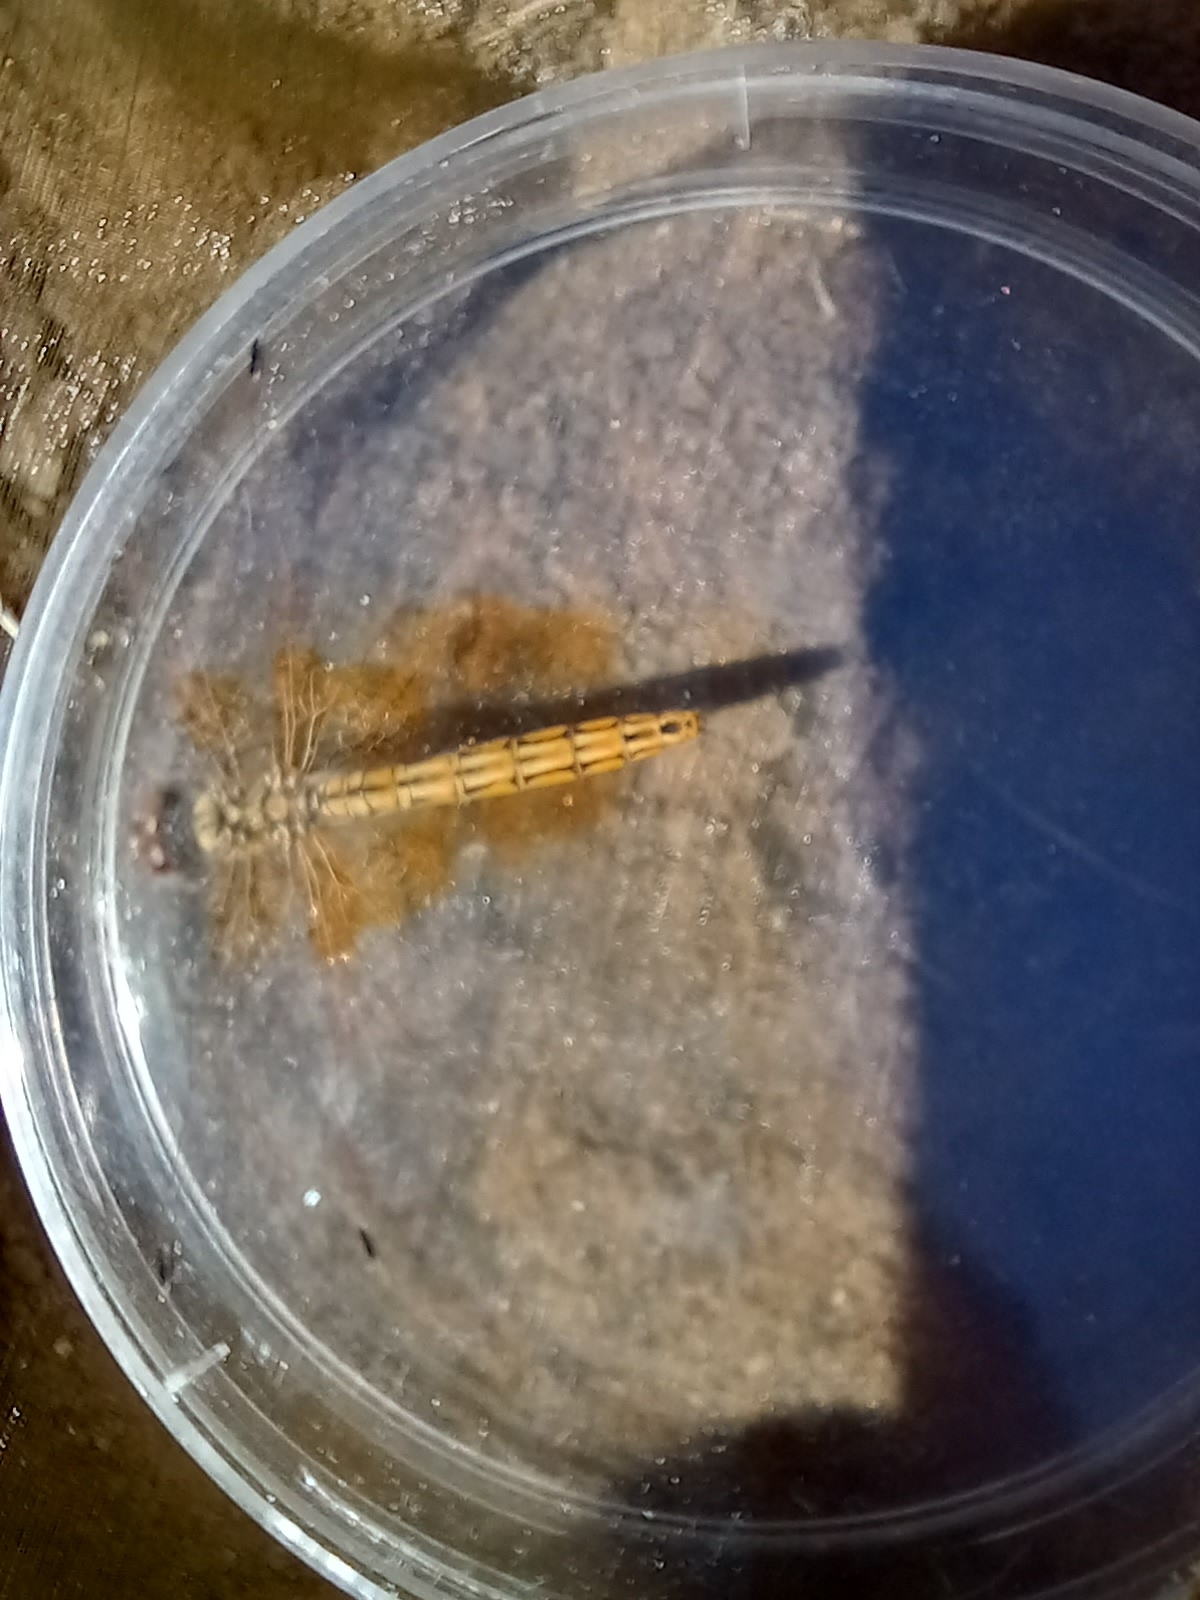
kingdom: Animalia
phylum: Arthropoda
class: Insecta
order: Odonata
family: Libellulidae
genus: Trithemis
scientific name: Trithemis kirbyi
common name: Kirby's dropwing
